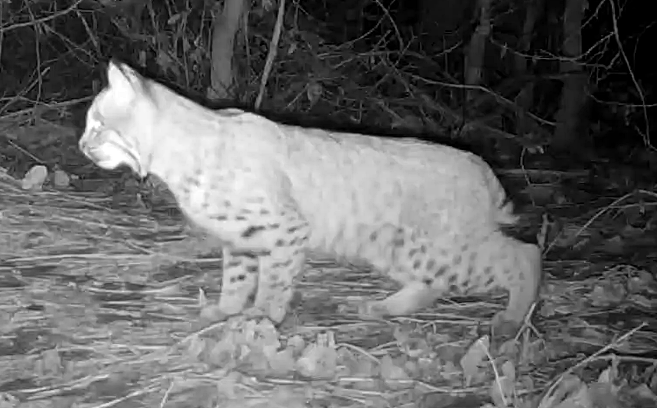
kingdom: Animalia
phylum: Chordata
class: Mammalia
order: Carnivora
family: Felidae
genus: Lynx
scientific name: Lynx rufus
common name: Bobcat
